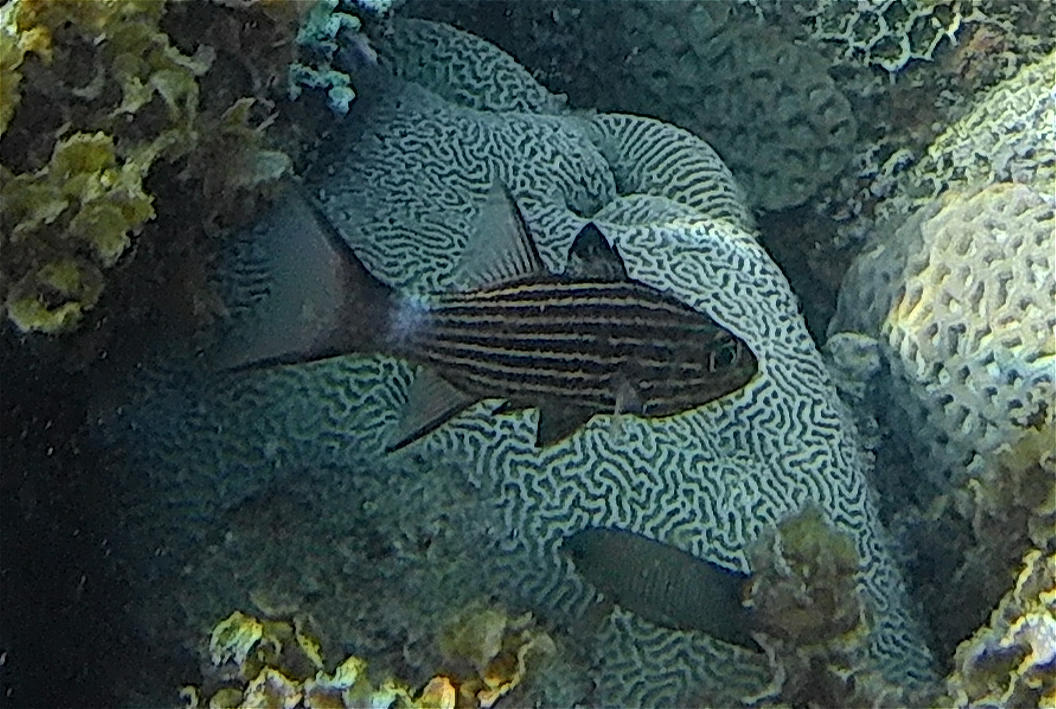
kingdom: Animalia
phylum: Chordata
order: Perciformes
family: Apogonidae
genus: Cheilodipterus
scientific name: Cheilodipterus macrodon
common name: Eight-lined cardinalfish
